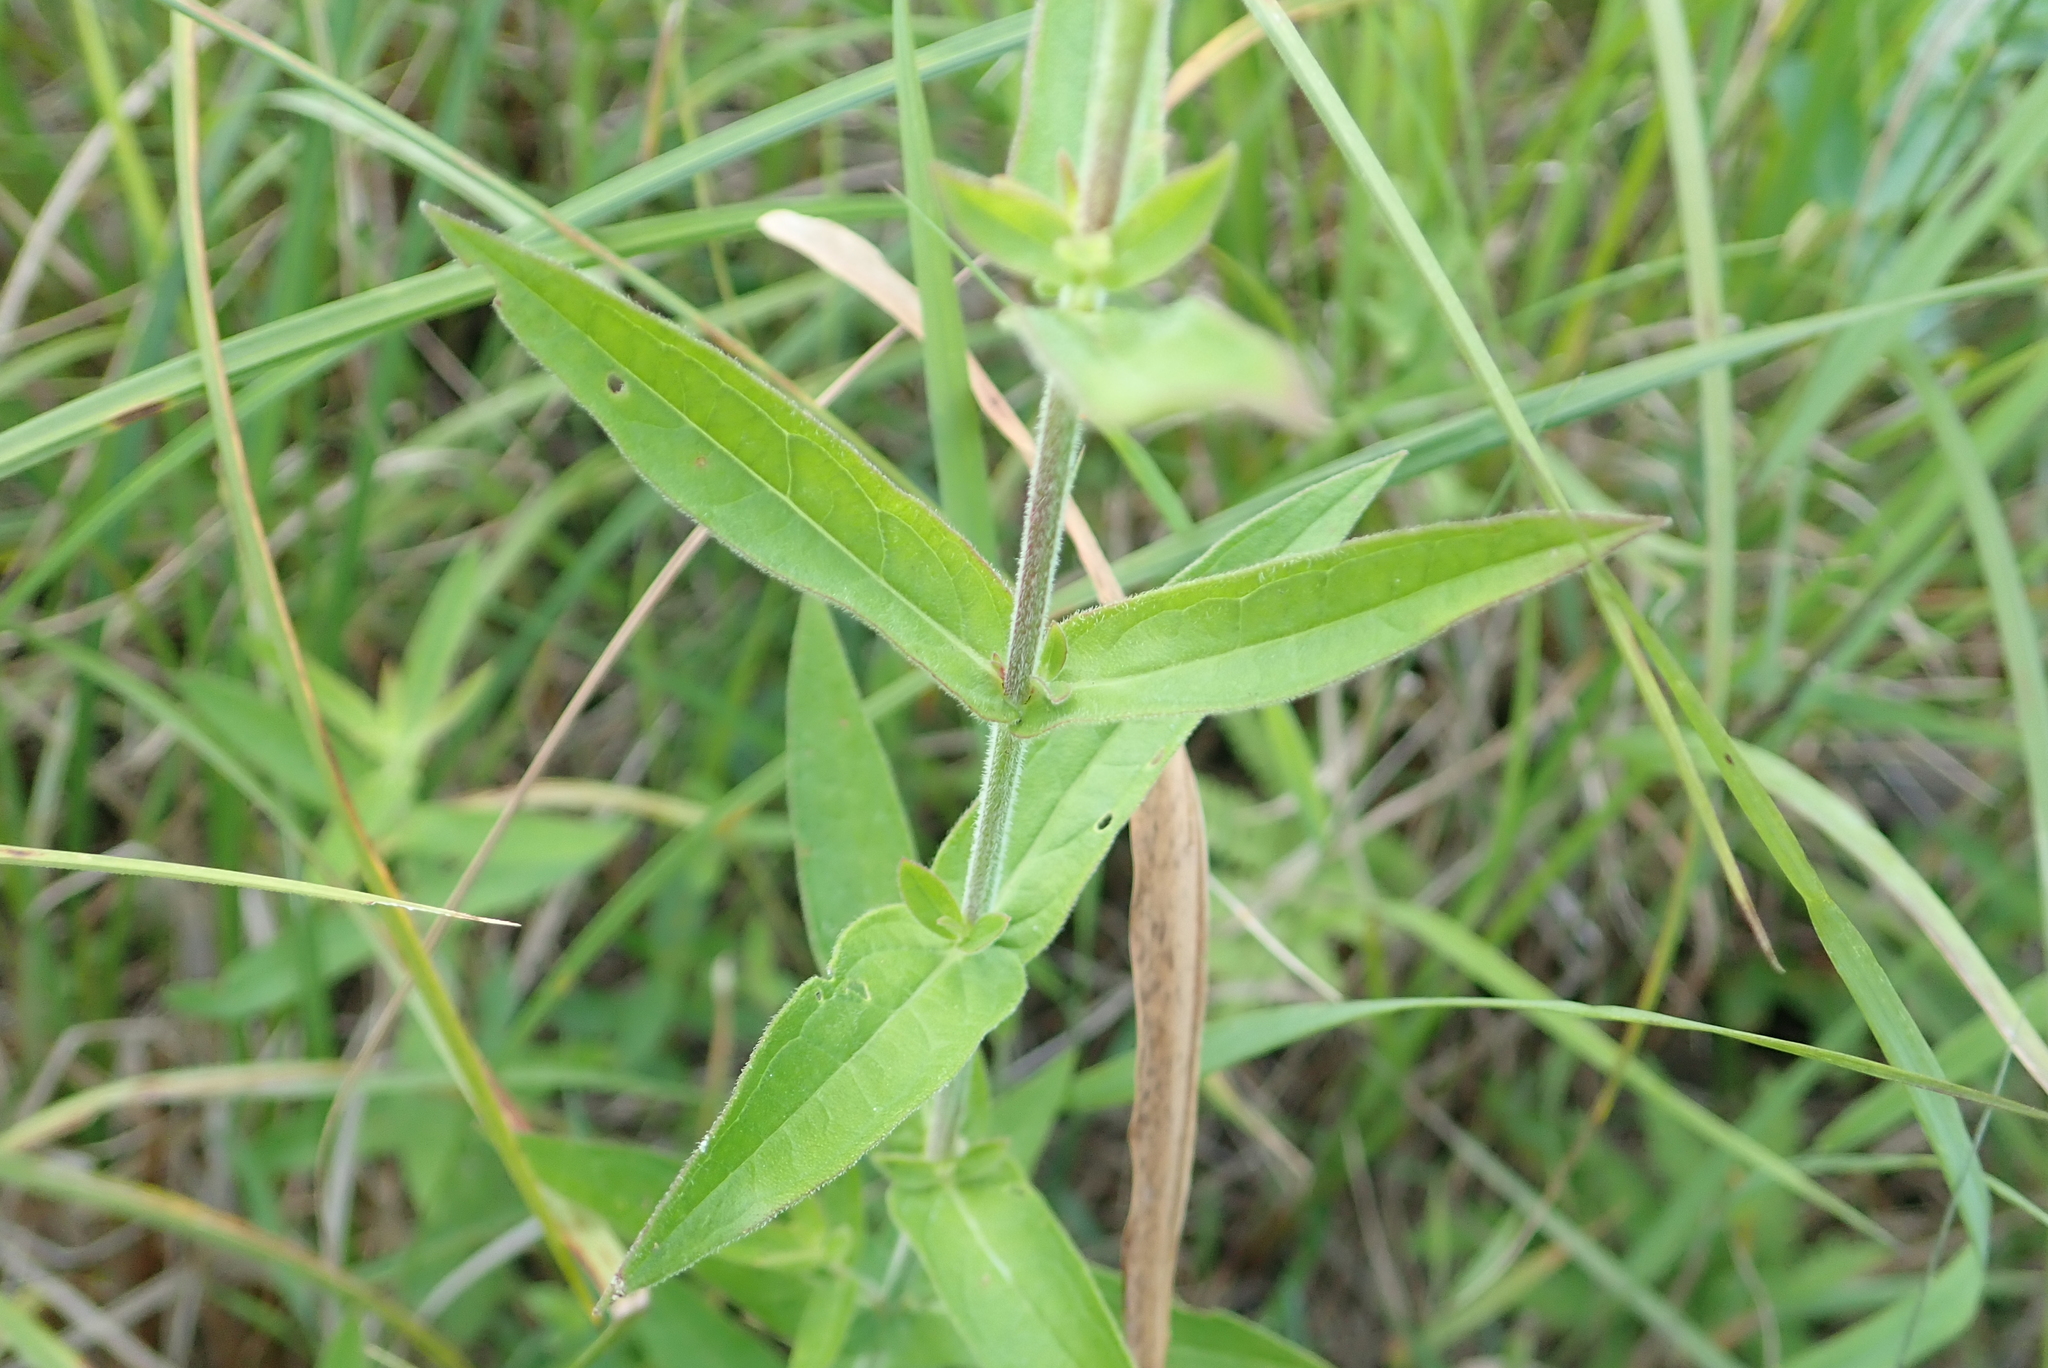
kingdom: Plantae
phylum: Tracheophyta
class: Magnoliopsida
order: Myrtales
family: Lythraceae
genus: Lythrum
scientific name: Lythrum salicaria
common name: Purple loosestrife
